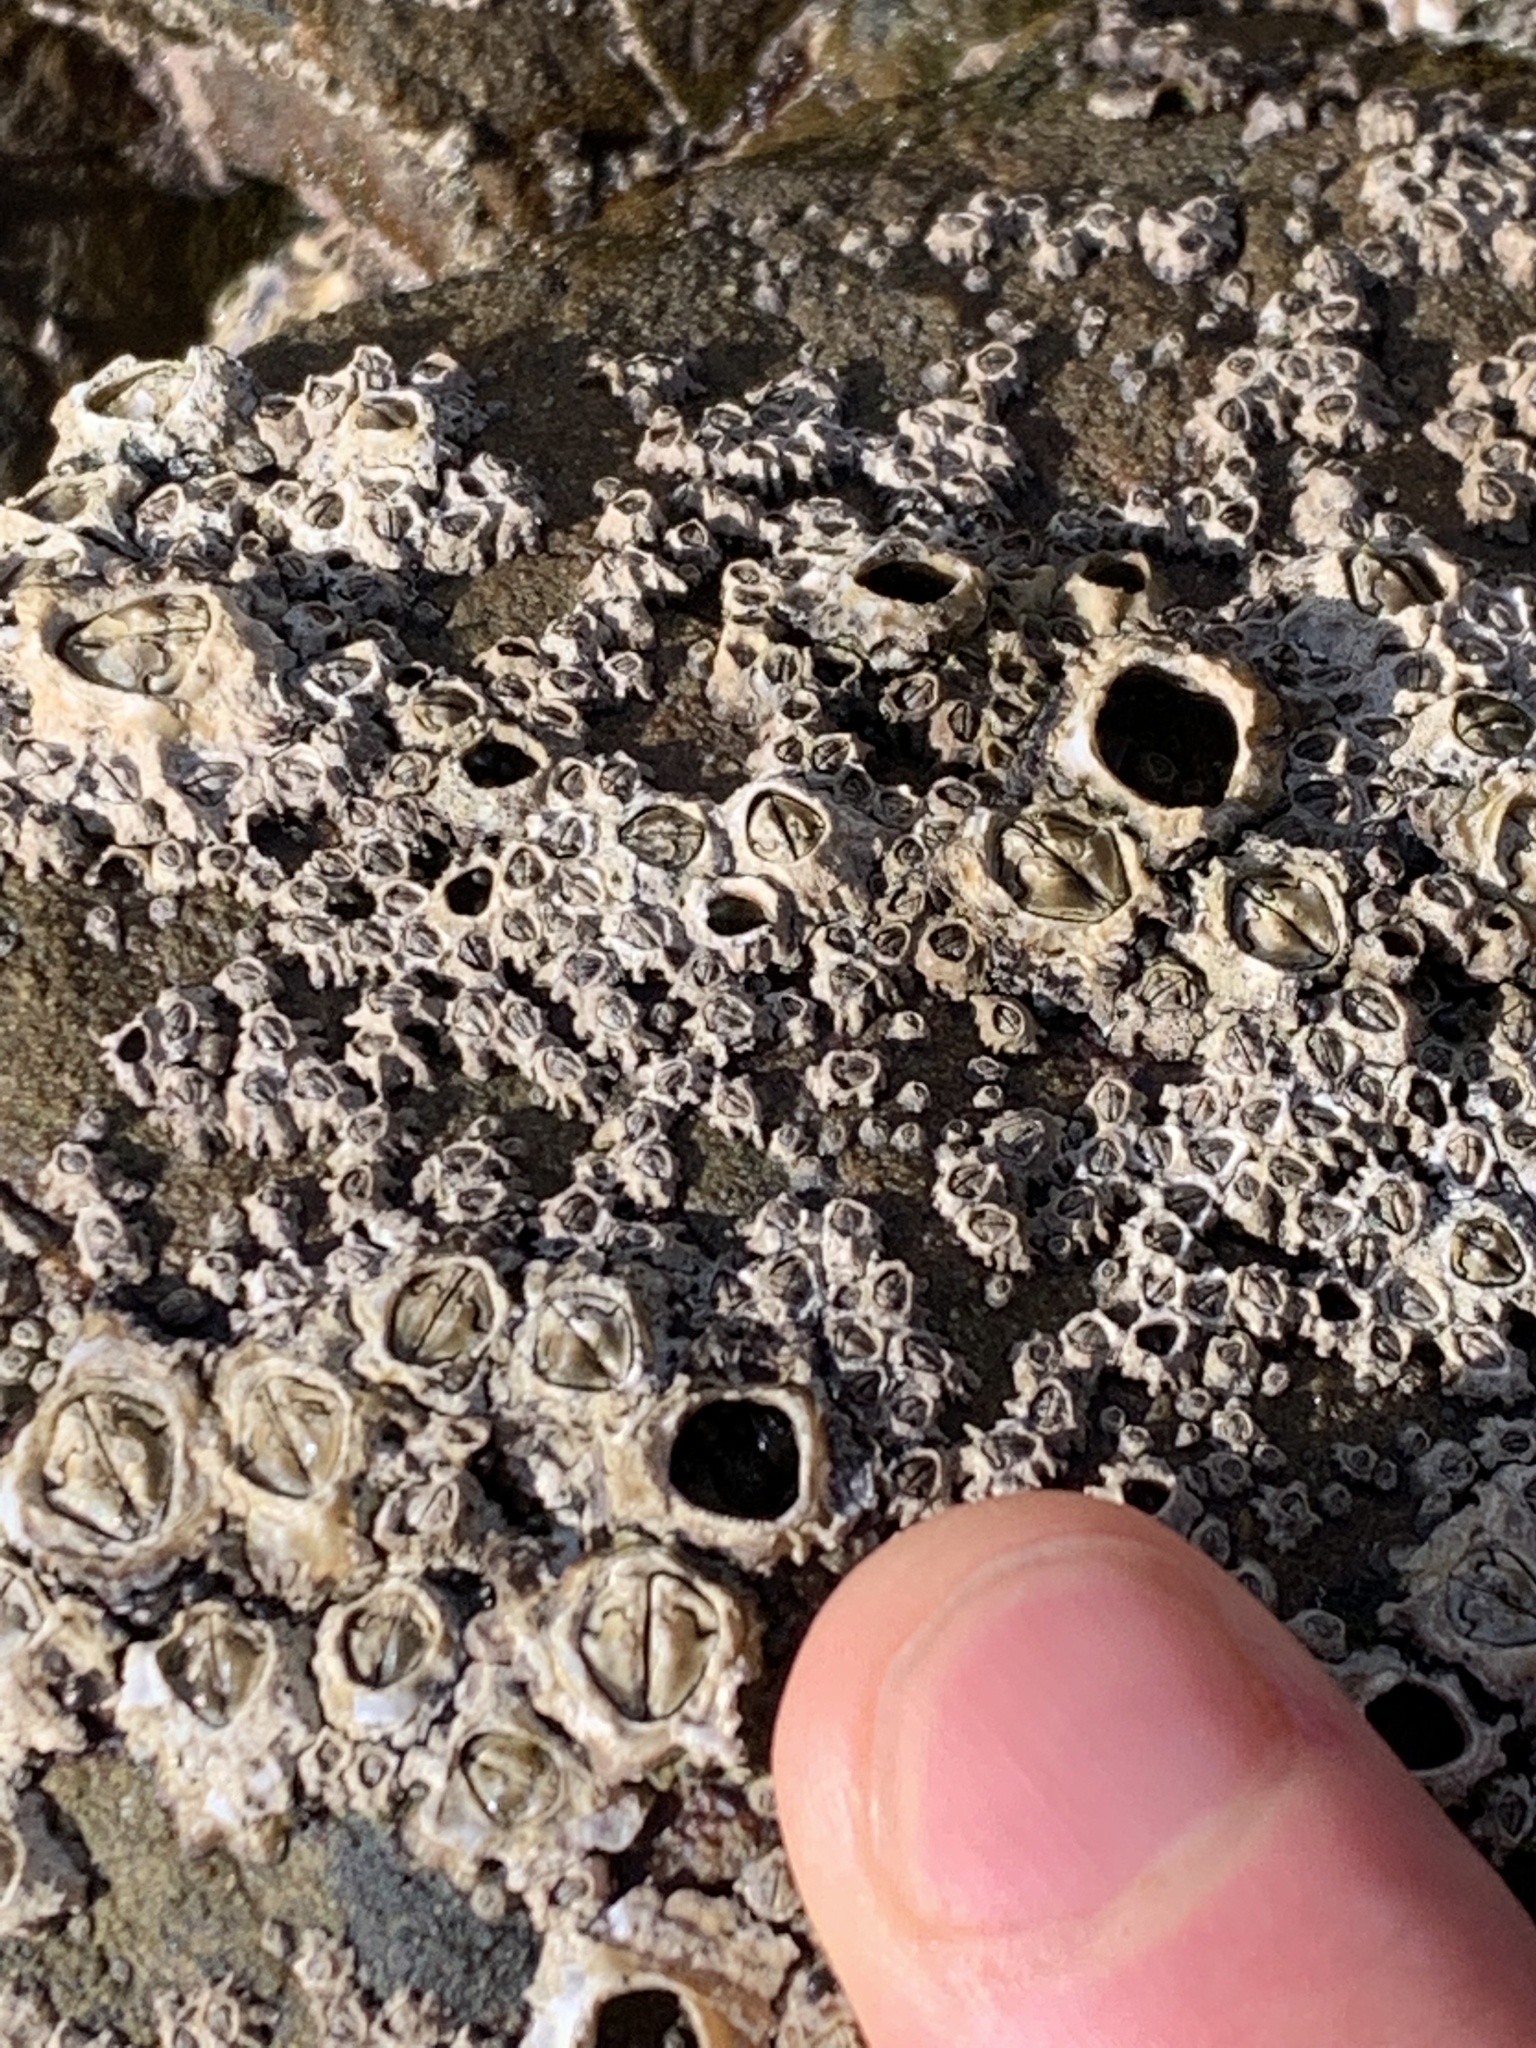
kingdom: Animalia
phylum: Arthropoda
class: Maxillopoda
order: Sessilia
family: Chthamalidae
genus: Chamaesipho
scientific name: Chamaesipho columna
